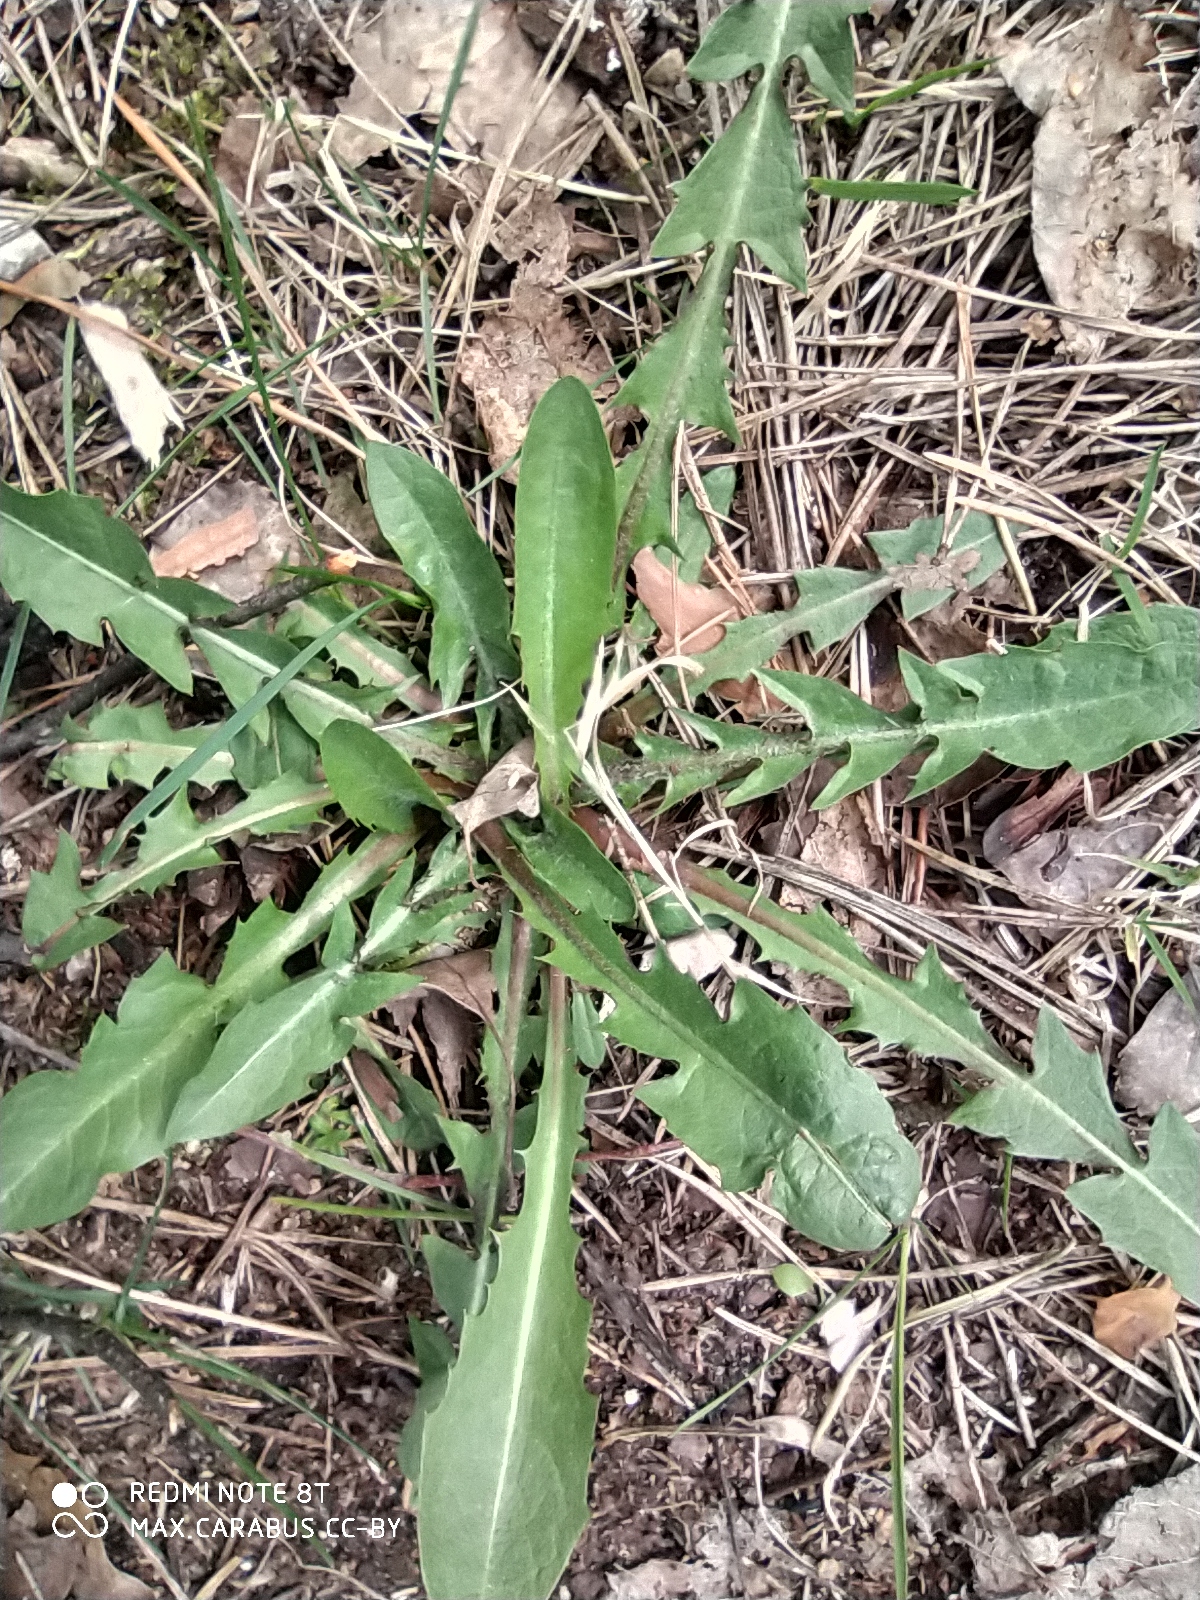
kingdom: Plantae
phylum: Tracheophyta
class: Magnoliopsida
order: Asterales
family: Asteraceae
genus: Taraxacum
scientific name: Taraxacum officinale
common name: Common dandelion
